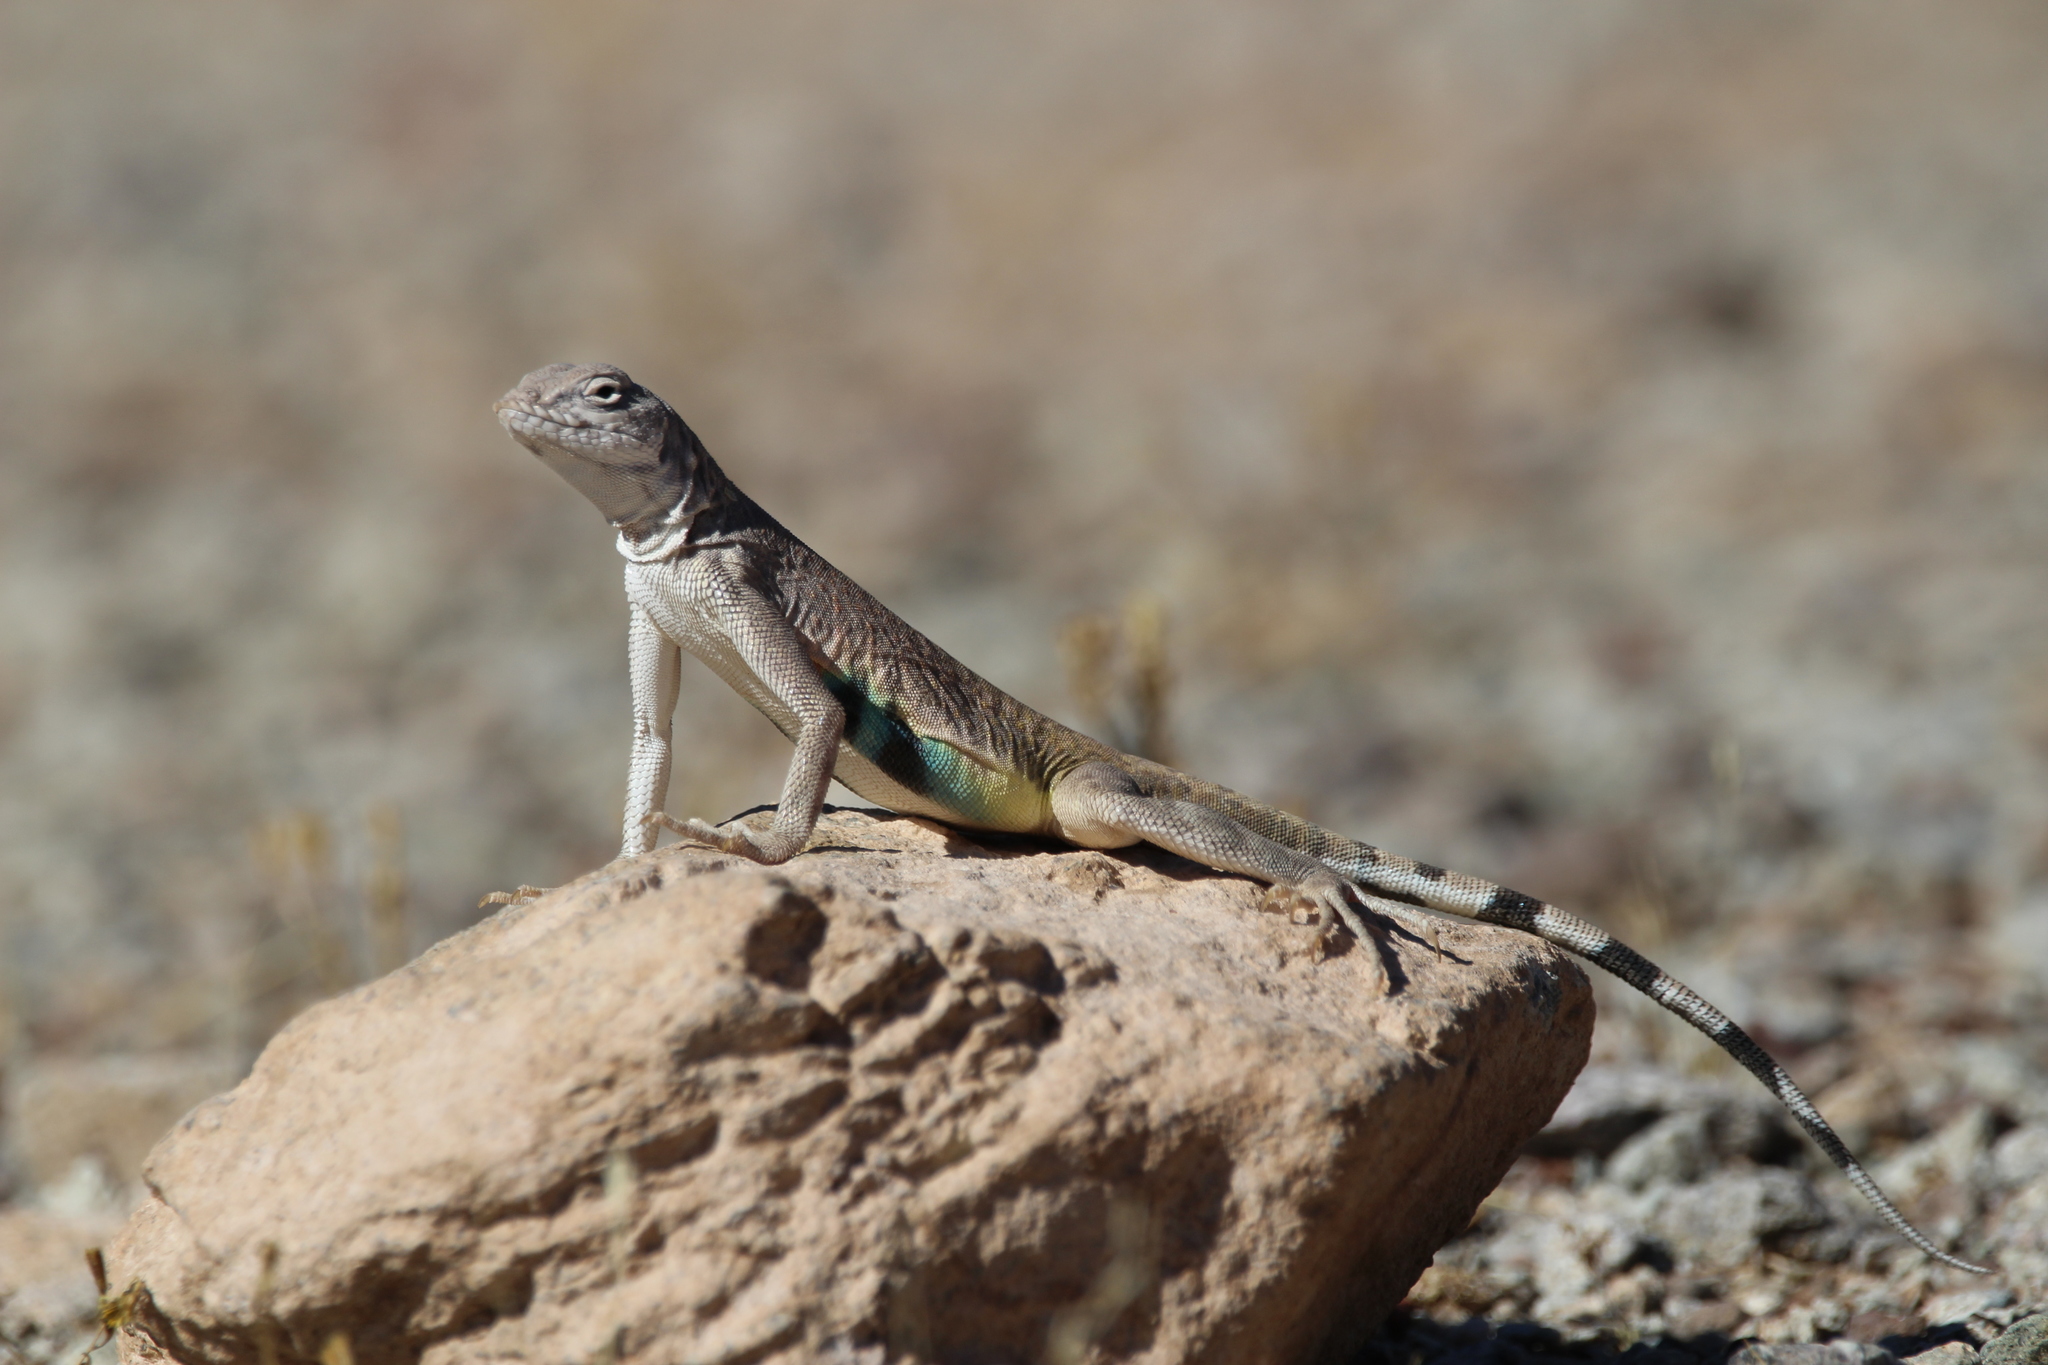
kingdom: Animalia
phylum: Chordata
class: Squamata
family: Phrynosomatidae
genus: Callisaurus
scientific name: Callisaurus draconoides
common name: Zebra-tailed lizard
